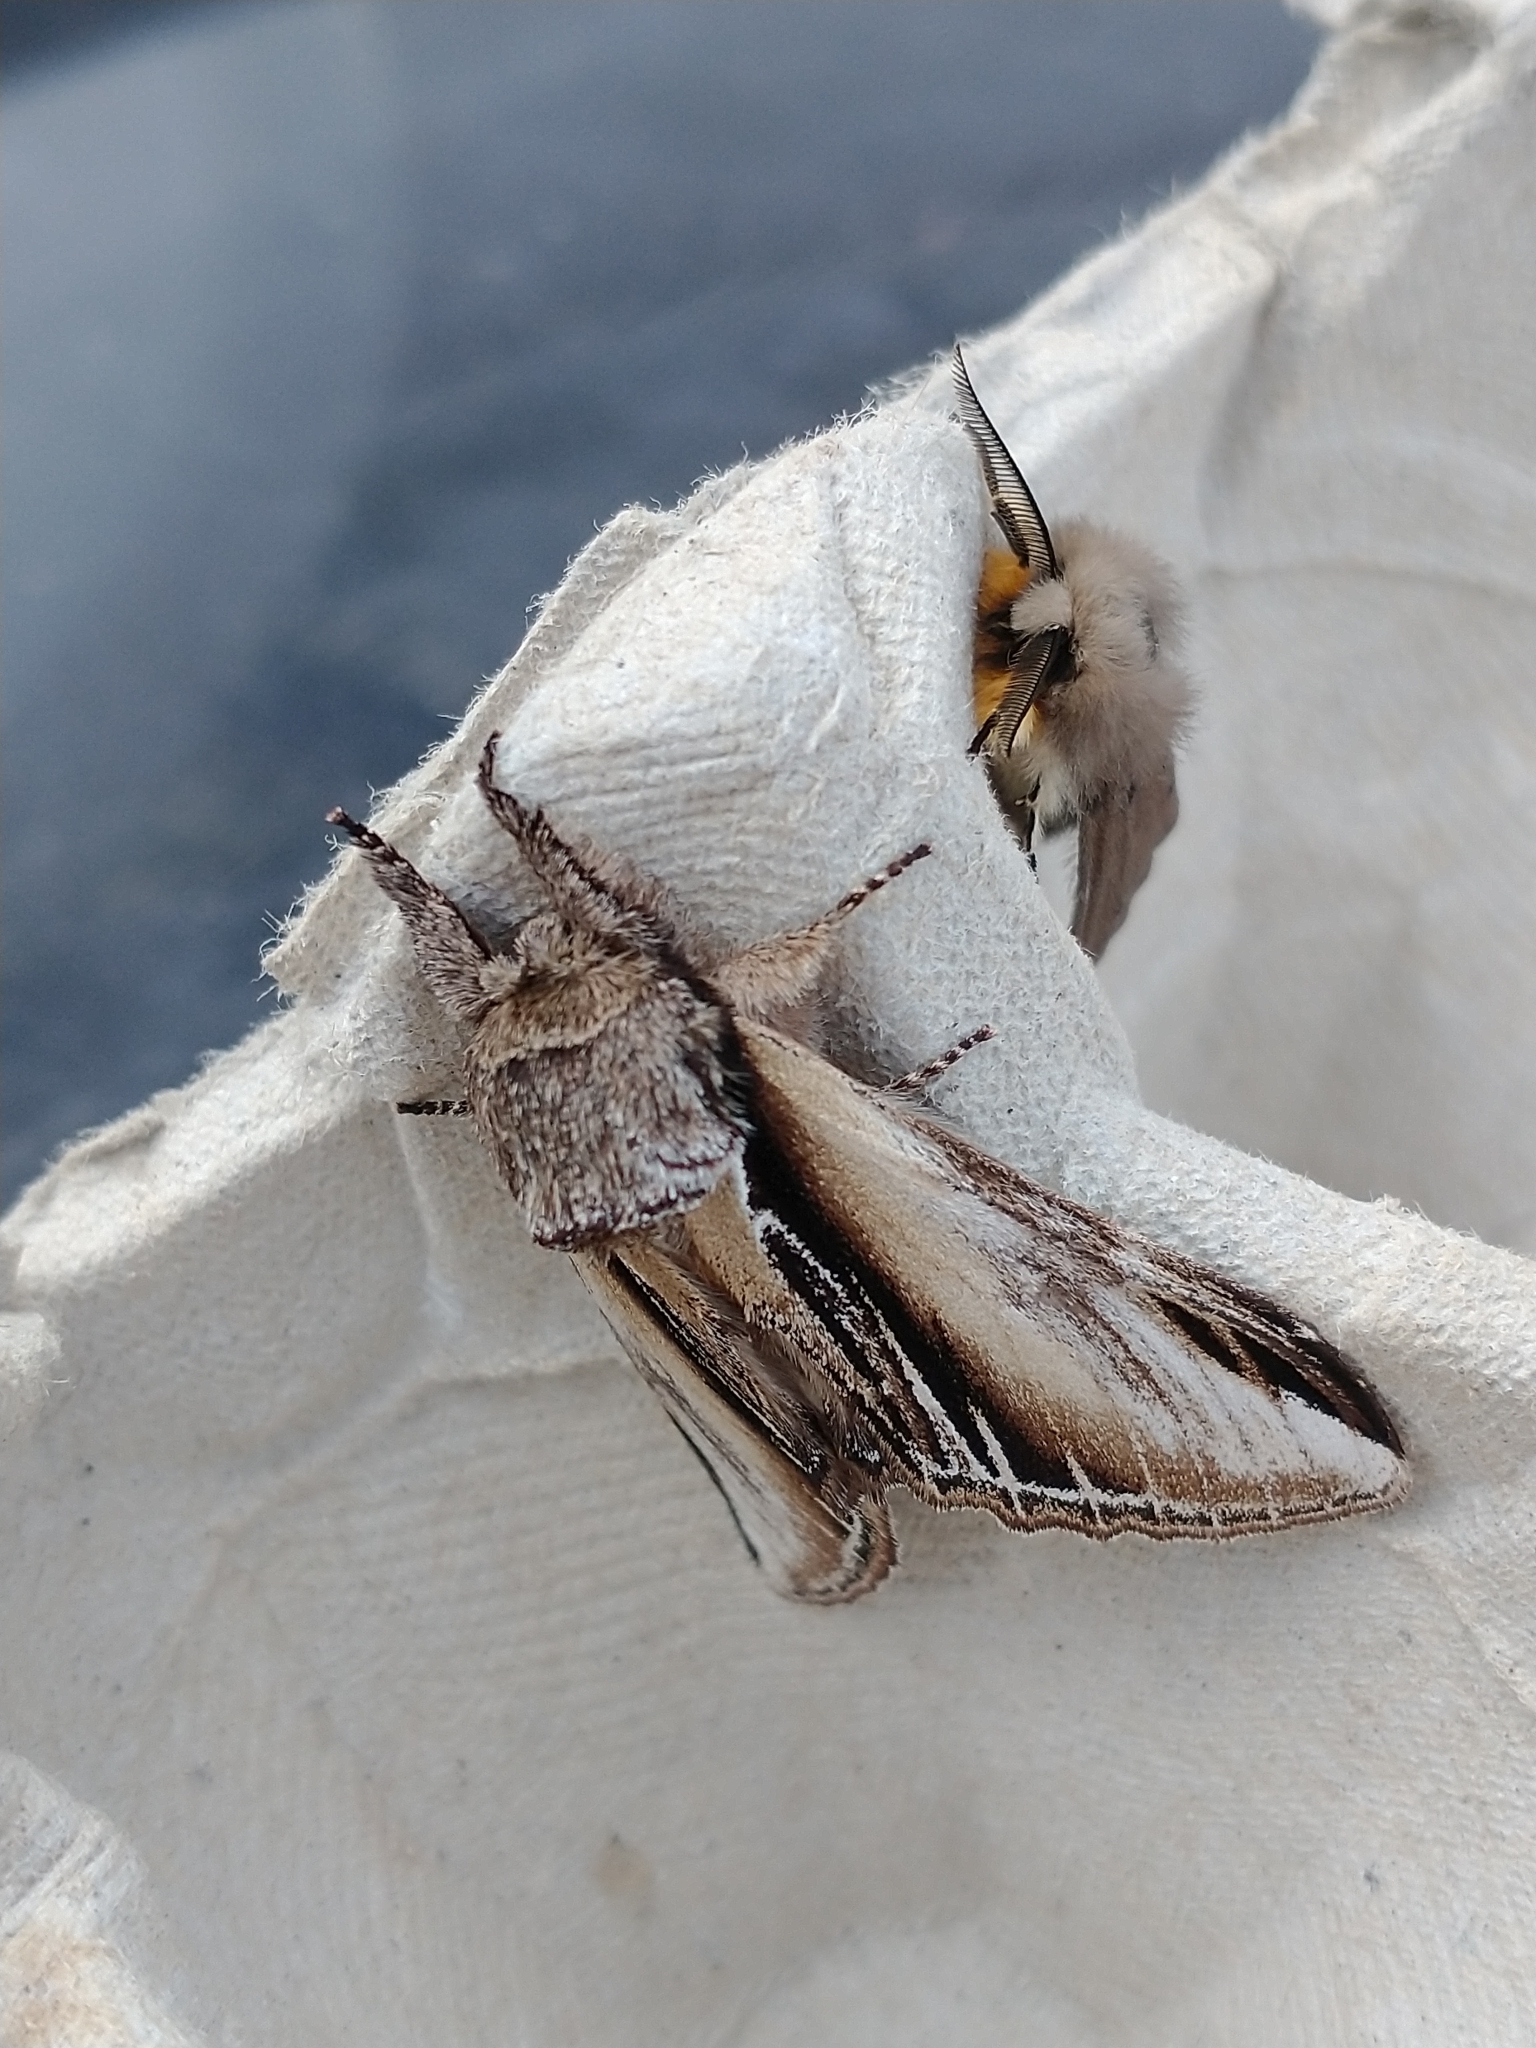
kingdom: Animalia
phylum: Arthropoda
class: Insecta
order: Lepidoptera
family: Notodontidae
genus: Pheosia
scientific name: Pheosia tremula
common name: Swallow prominent
